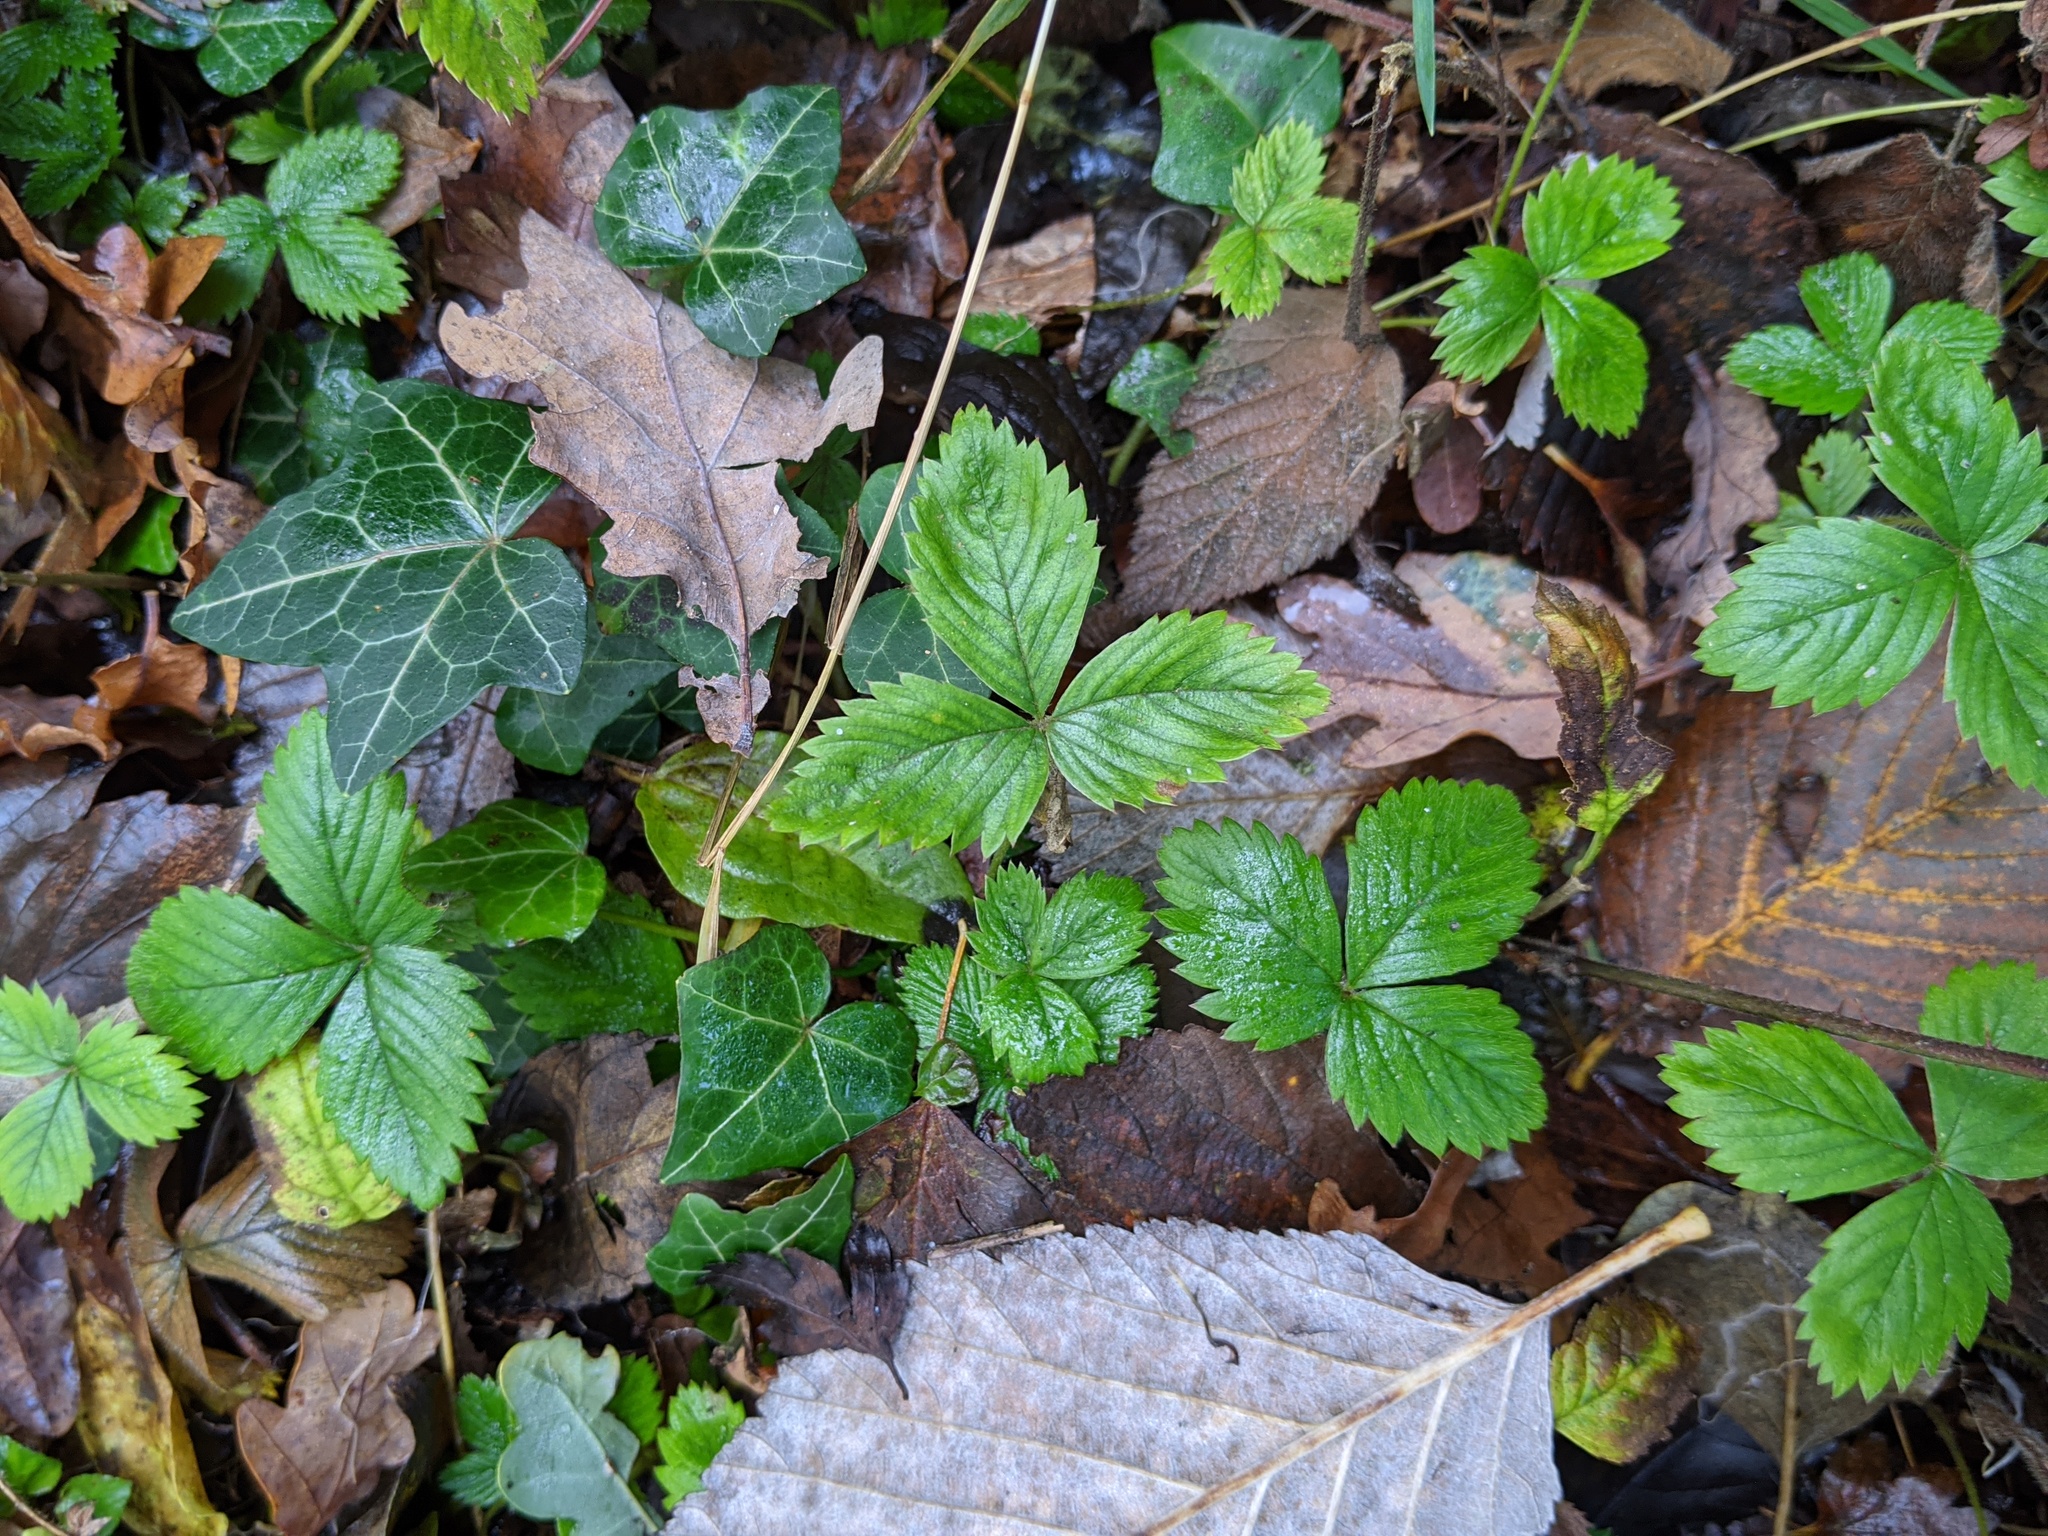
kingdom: Plantae
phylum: Tracheophyta
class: Magnoliopsida
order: Rosales
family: Rosaceae
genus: Fragaria
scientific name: Fragaria vesca
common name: Wild strawberry
